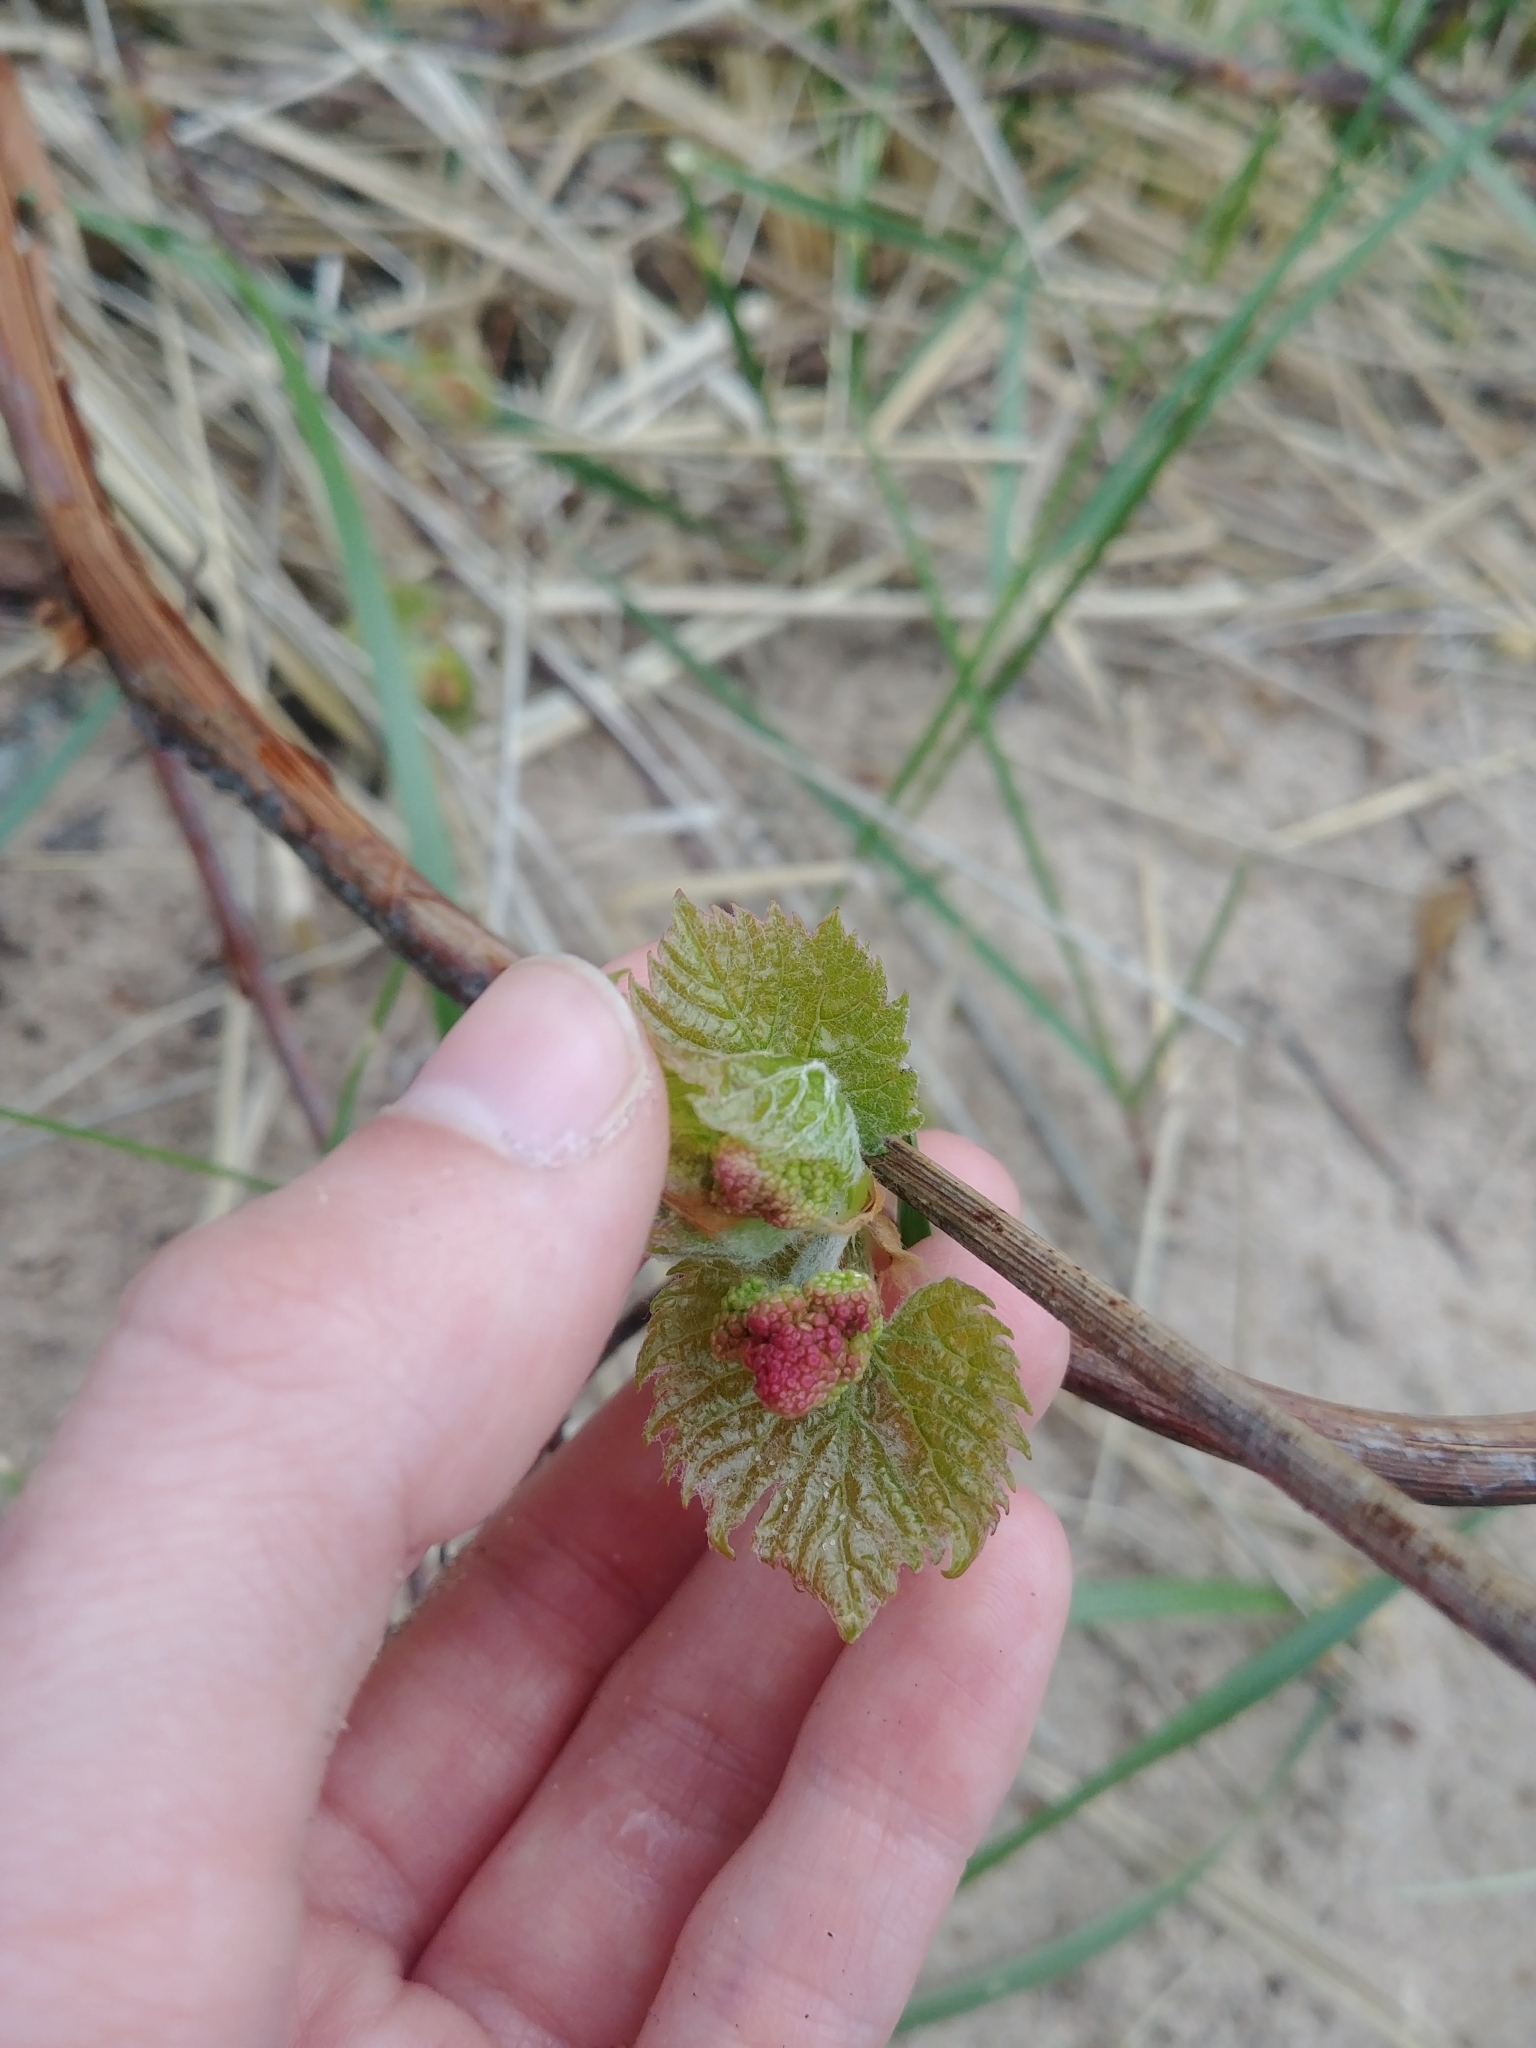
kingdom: Plantae
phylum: Tracheophyta
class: Magnoliopsida
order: Vitales
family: Vitaceae
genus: Vitis
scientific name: Vitis riparia
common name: Frost grape
